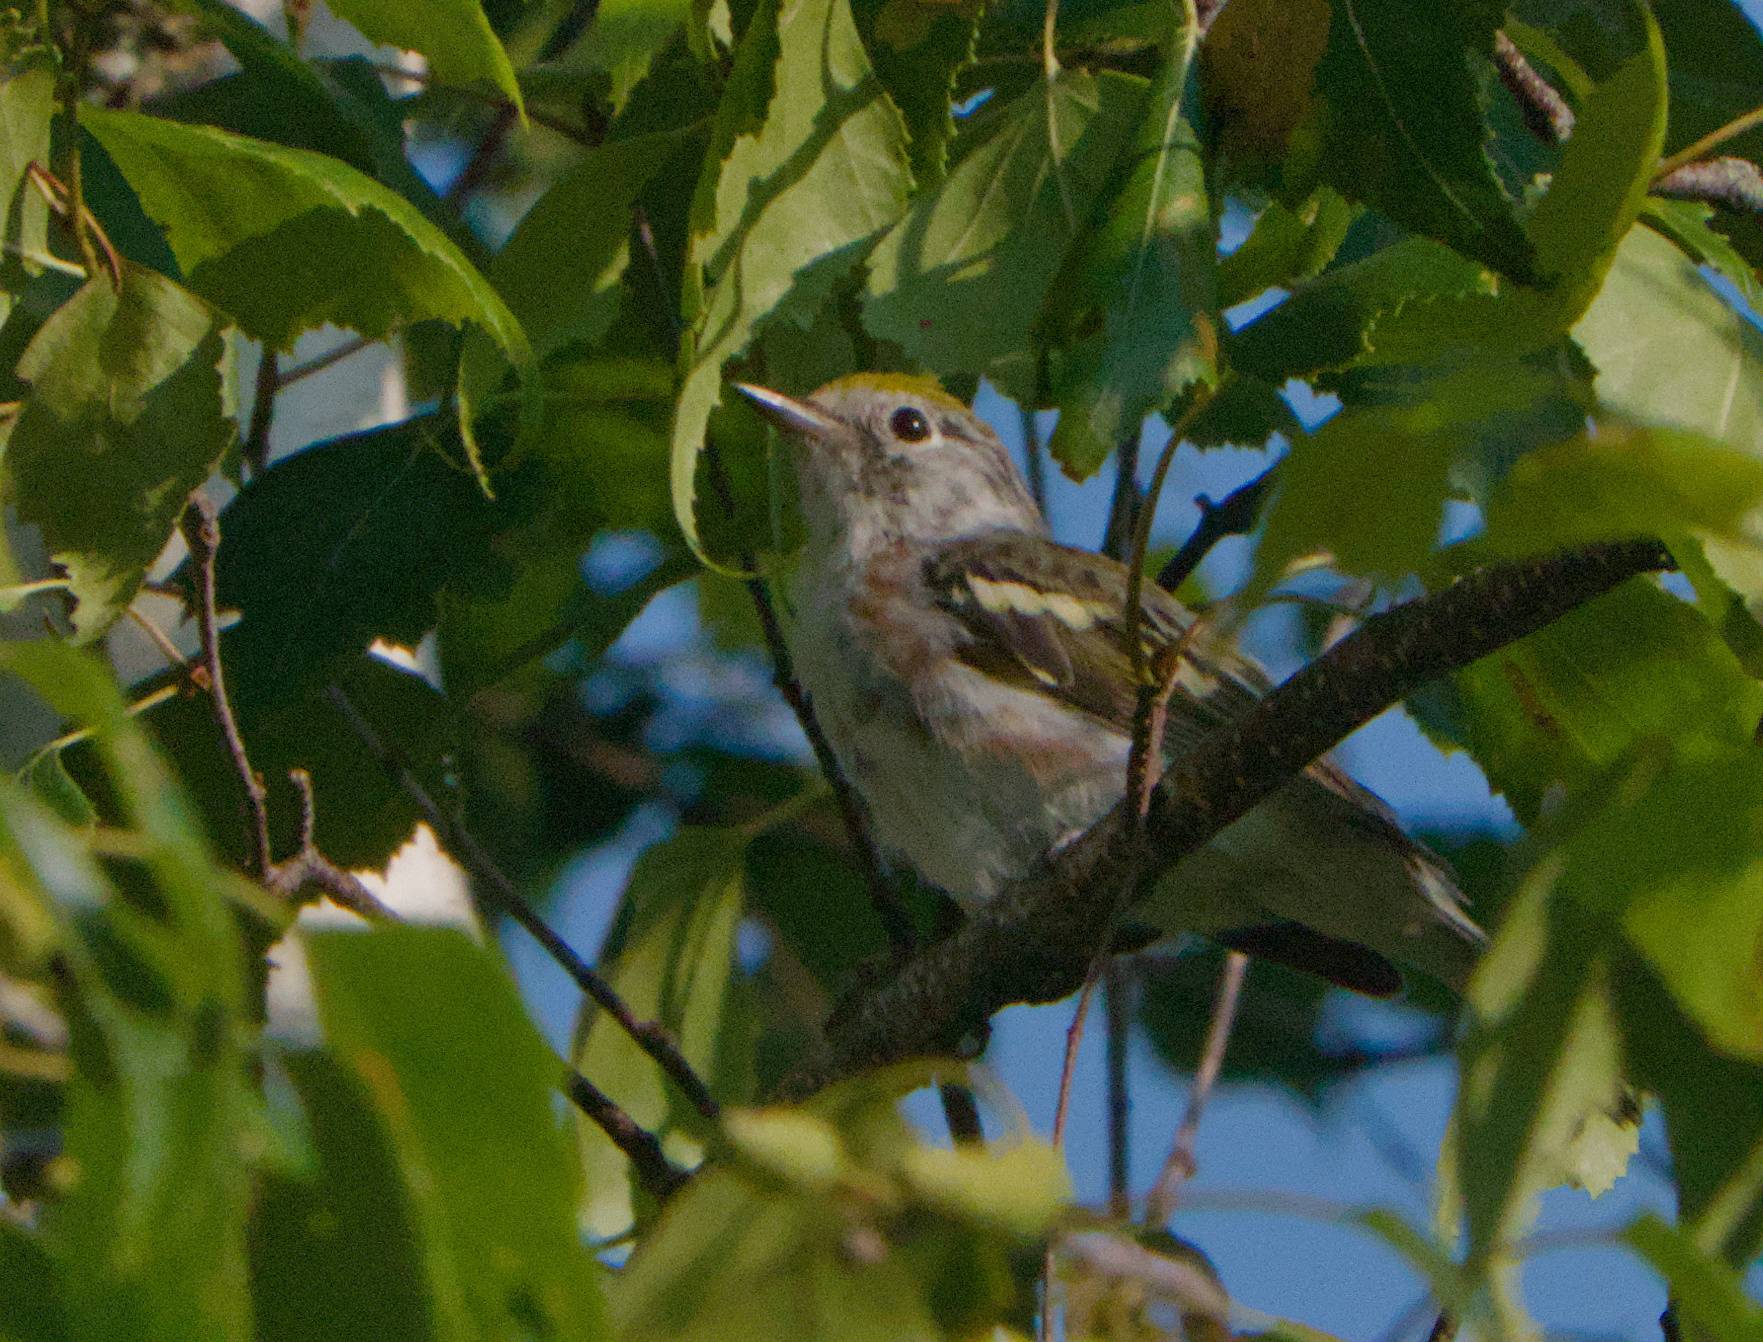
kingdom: Animalia
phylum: Chordata
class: Aves
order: Passeriformes
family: Parulidae
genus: Setophaga
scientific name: Setophaga pensylvanica
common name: Chestnut-sided warbler
